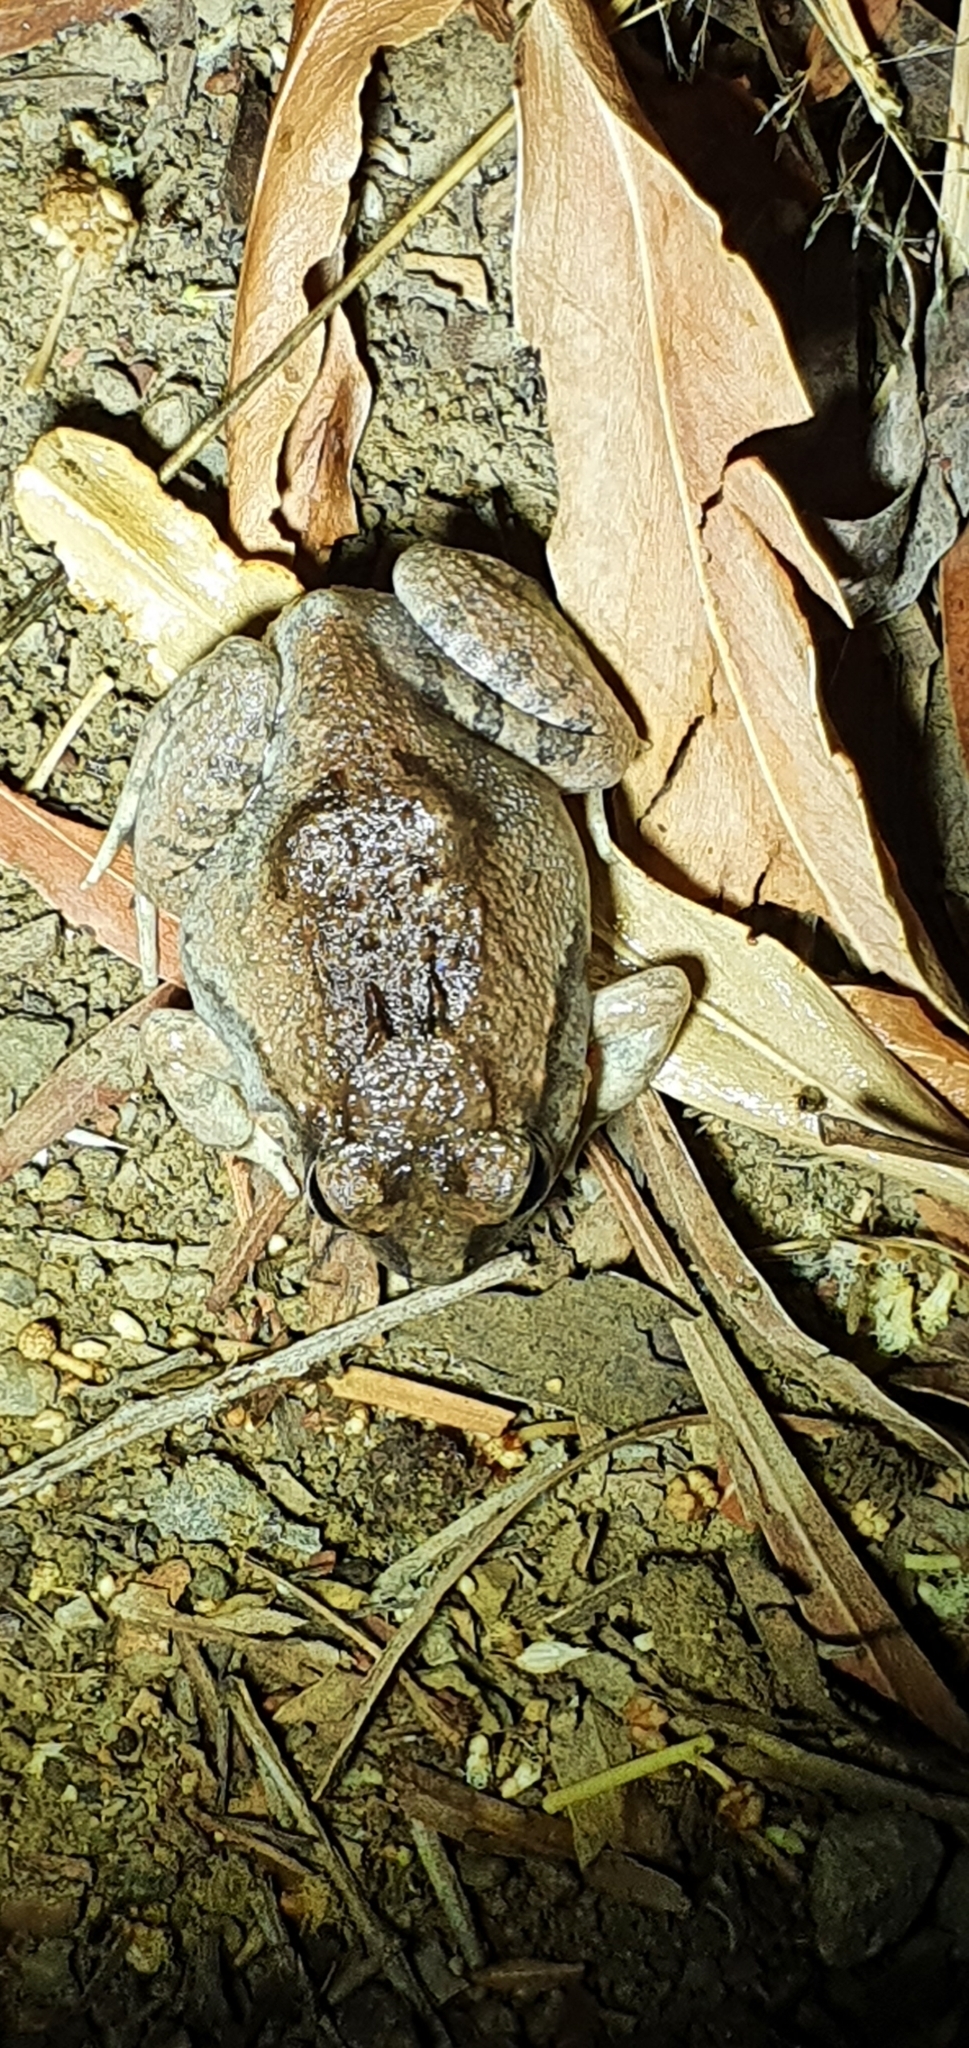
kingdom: Animalia
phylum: Chordata
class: Amphibia
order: Anura
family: Limnodynastidae
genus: Platyplectrum
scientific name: Platyplectrum ornatum
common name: Ornate burrowing frog
